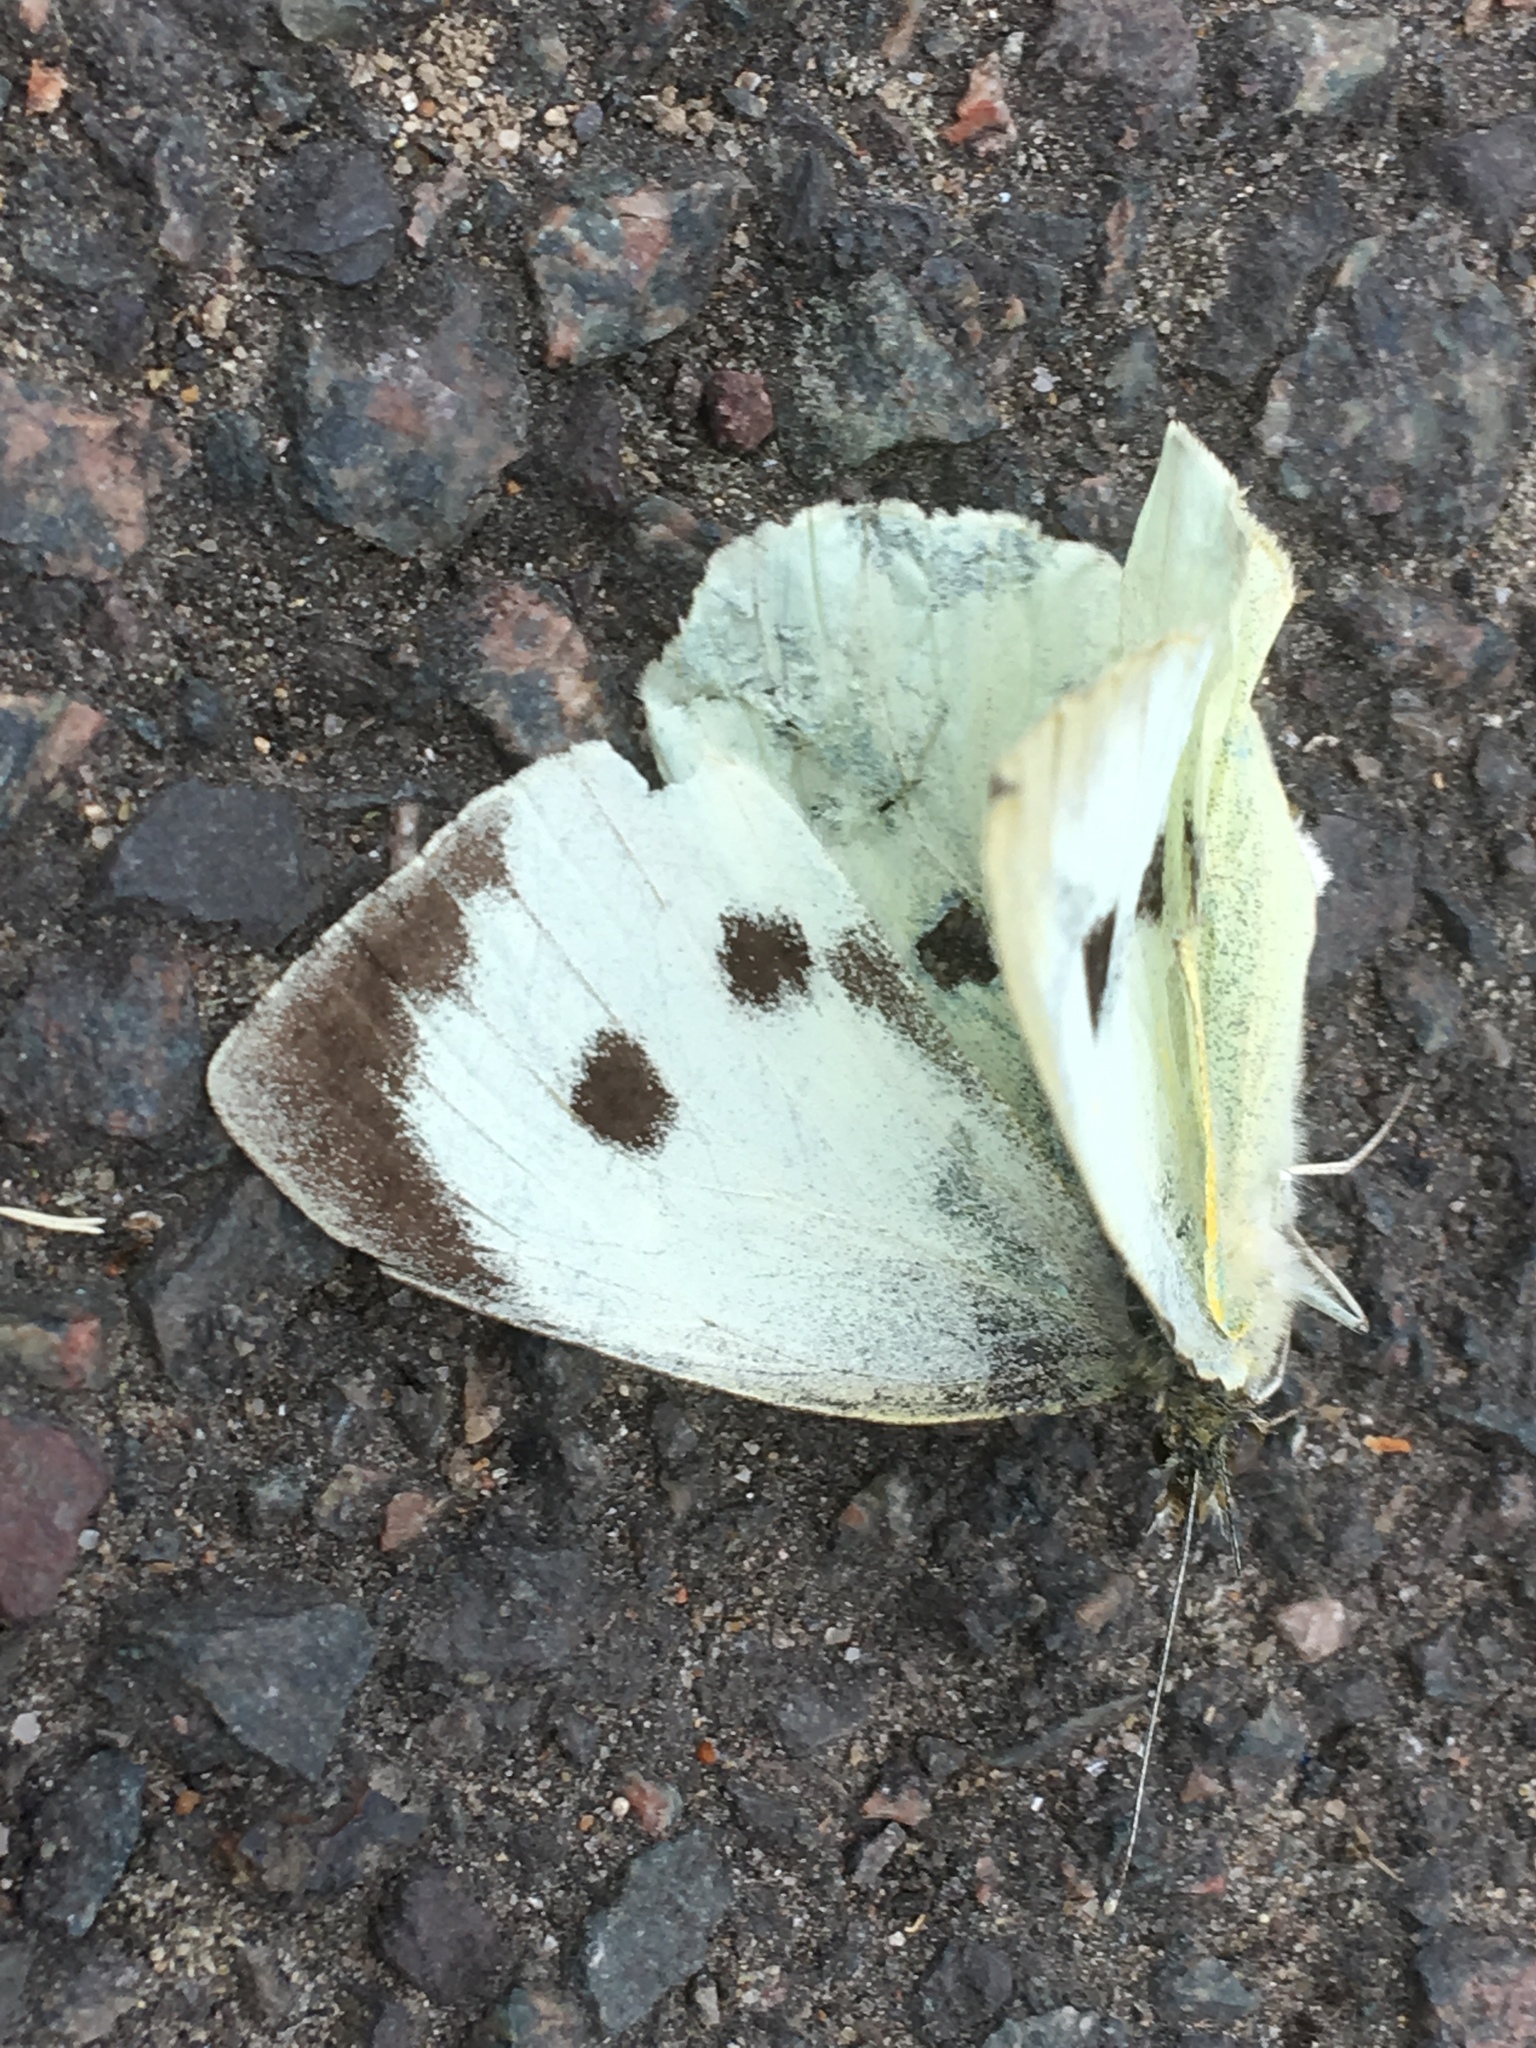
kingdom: Animalia
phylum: Arthropoda
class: Insecta
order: Lepidoptera
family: Pieridae
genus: Pieris
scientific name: Pieris brassicae
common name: Large white
